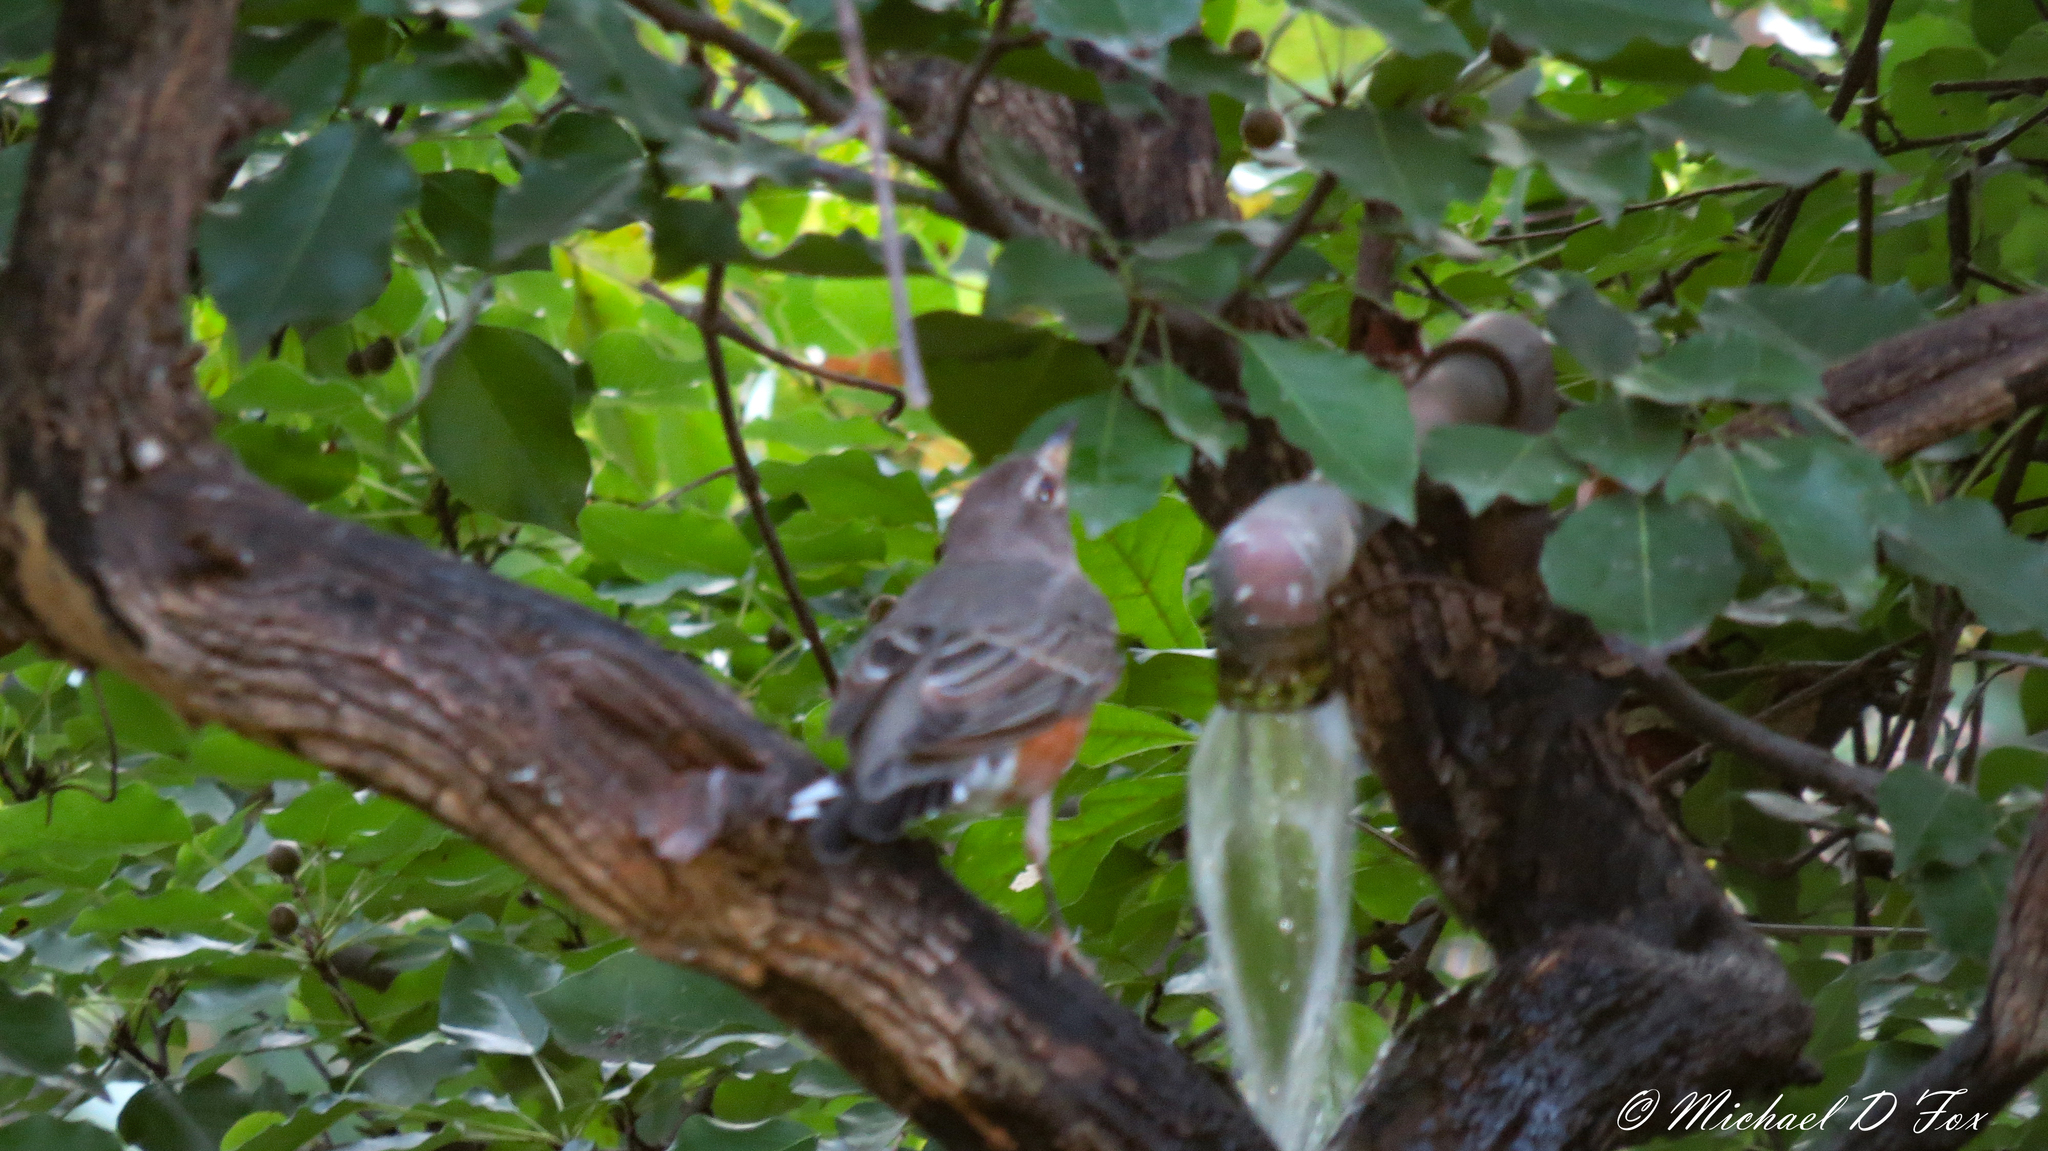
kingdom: Animalia
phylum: Chordata
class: Aves
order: Passeriformes
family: Turdidae
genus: Turdus
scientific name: Turdus migratorius
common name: American robin
